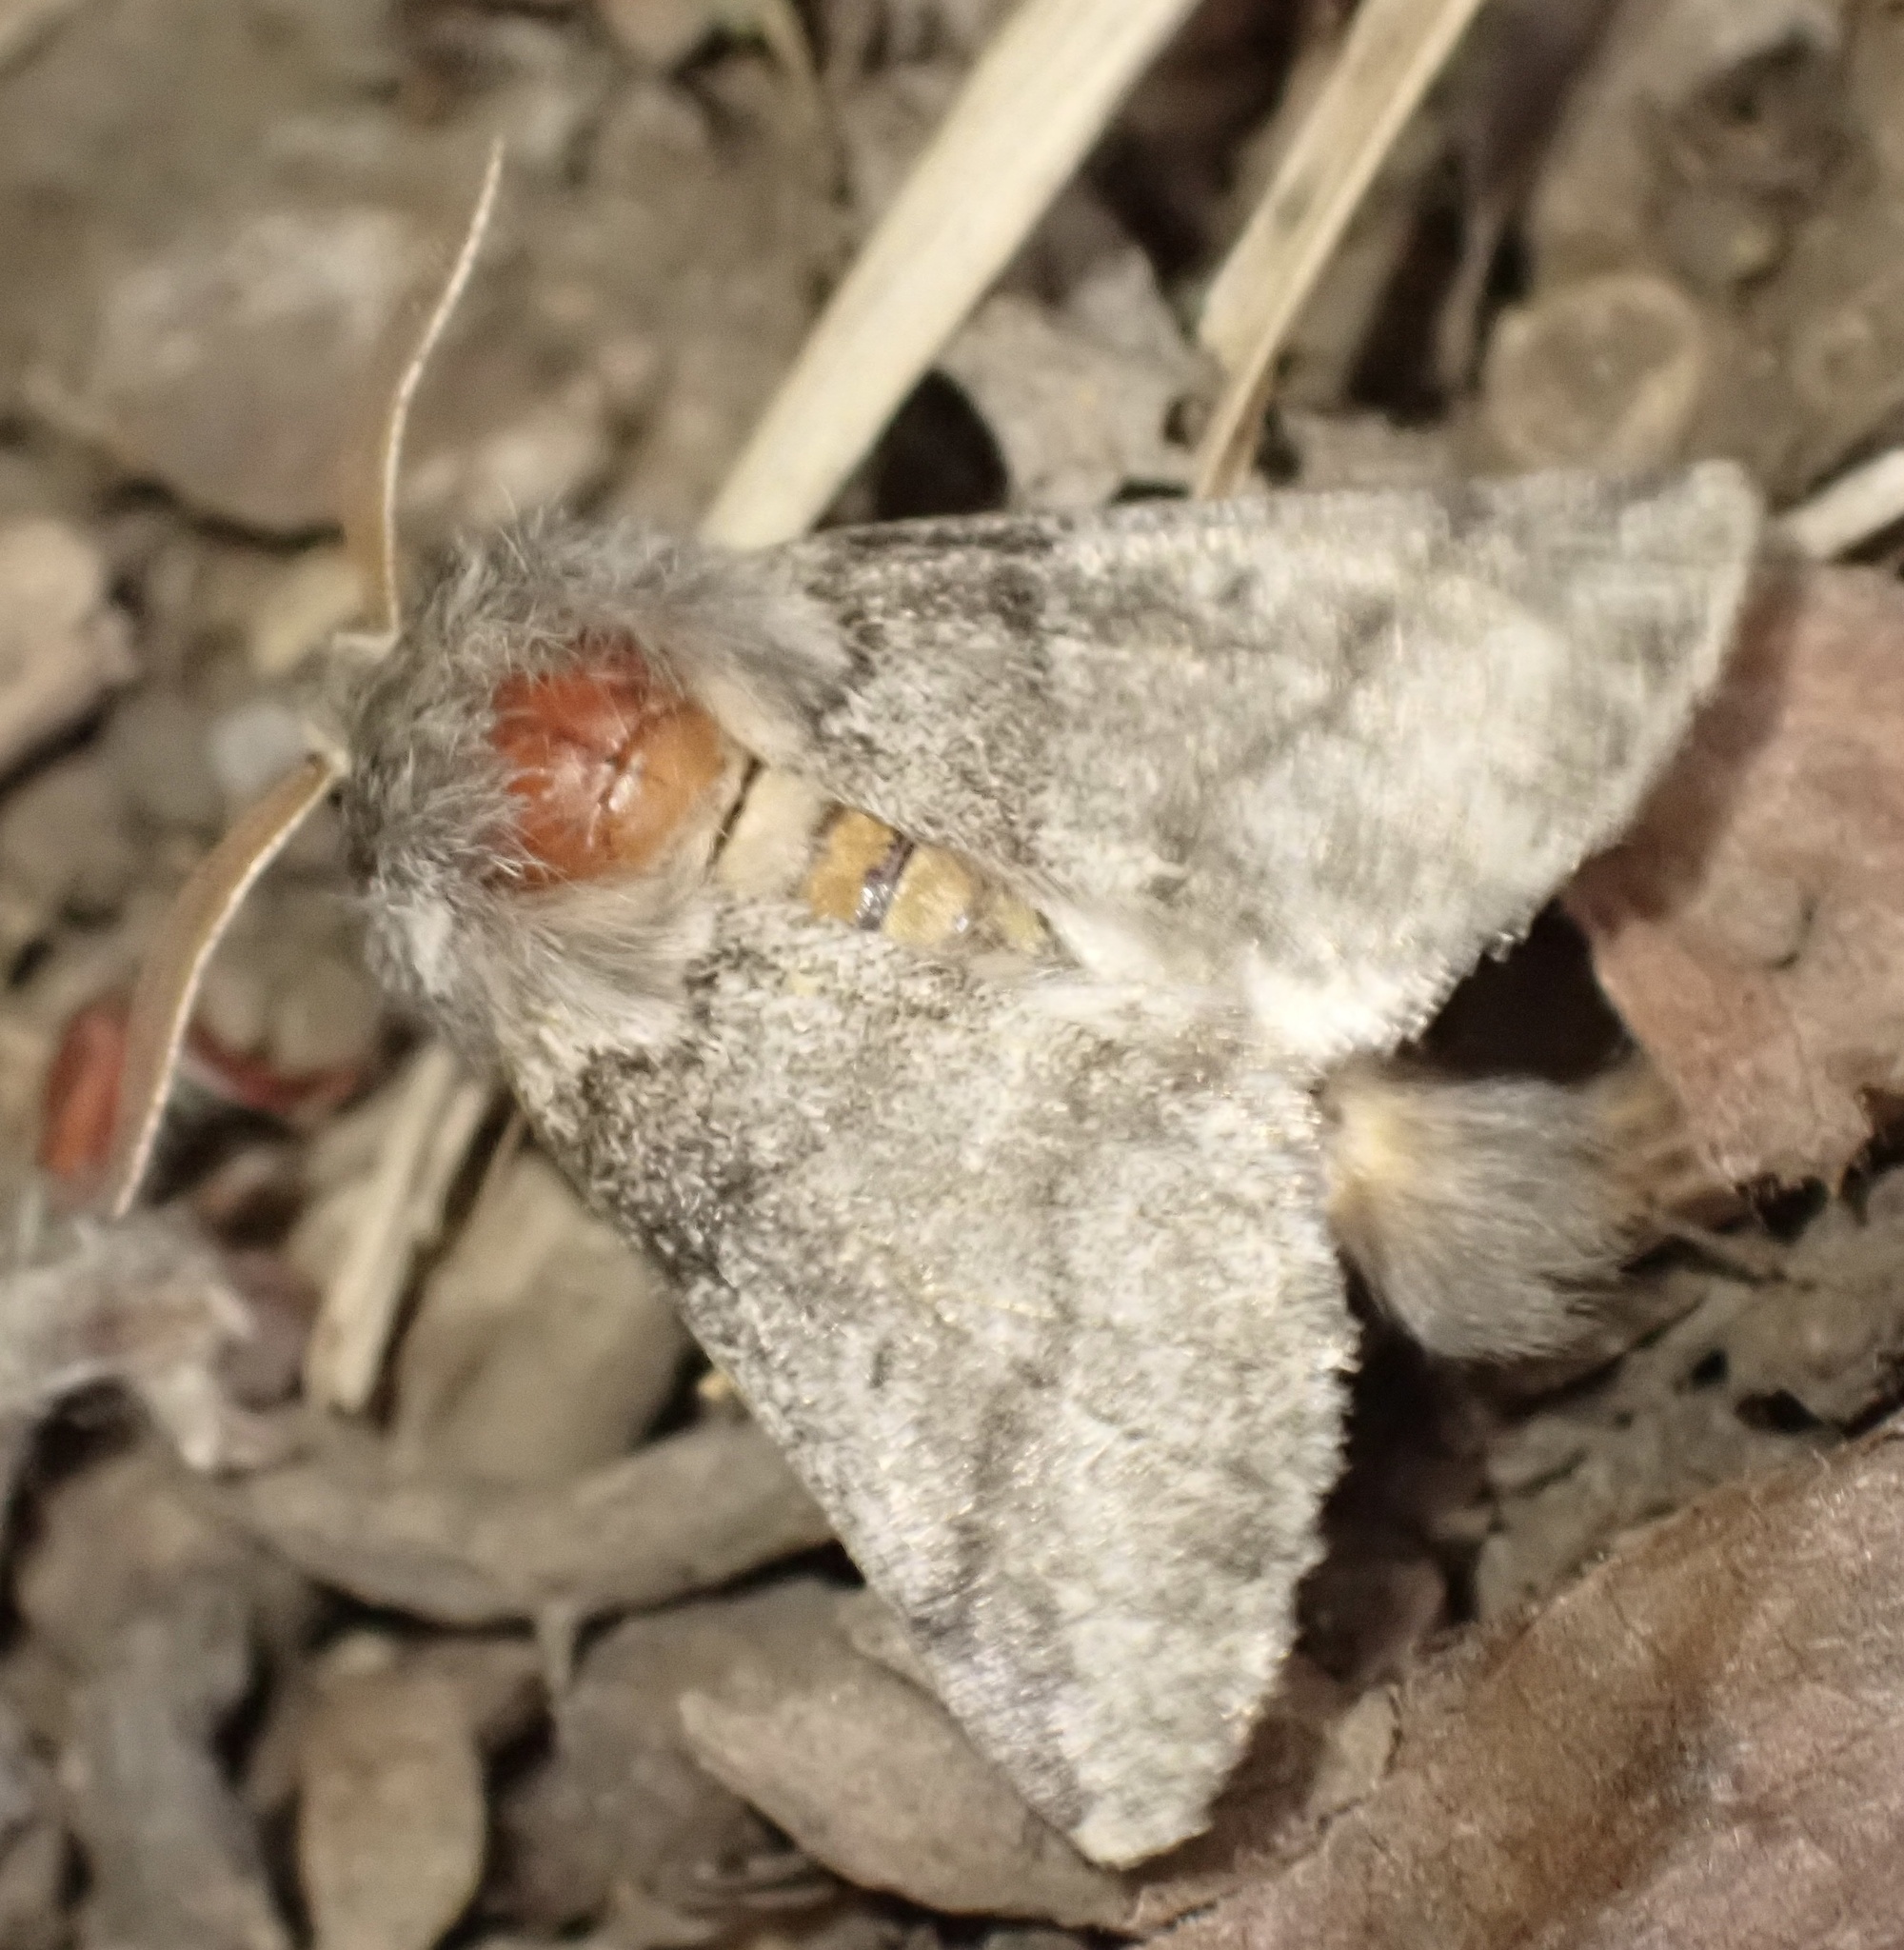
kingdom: Animalia
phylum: Arthropoda
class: Insecta
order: Lepidoptera
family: Notodontidae
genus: Thaumetopoea
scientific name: Thaumetopoea processionea
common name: Oak processionea
